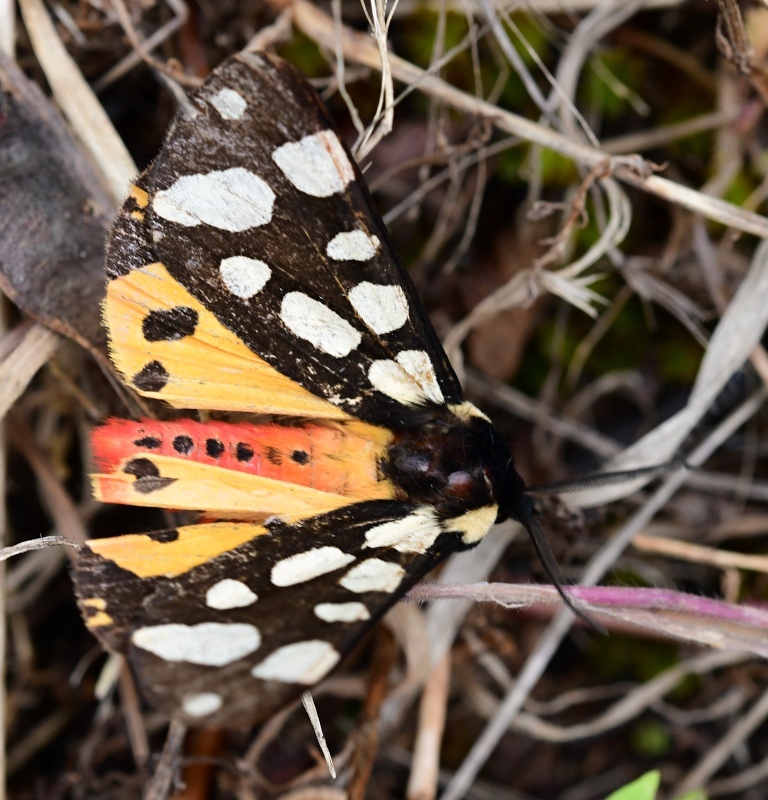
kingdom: Animalia
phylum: Arthropoda
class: Insecta
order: Lepidoptera
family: Erebidae
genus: Epicallia
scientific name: Epicallia villica
